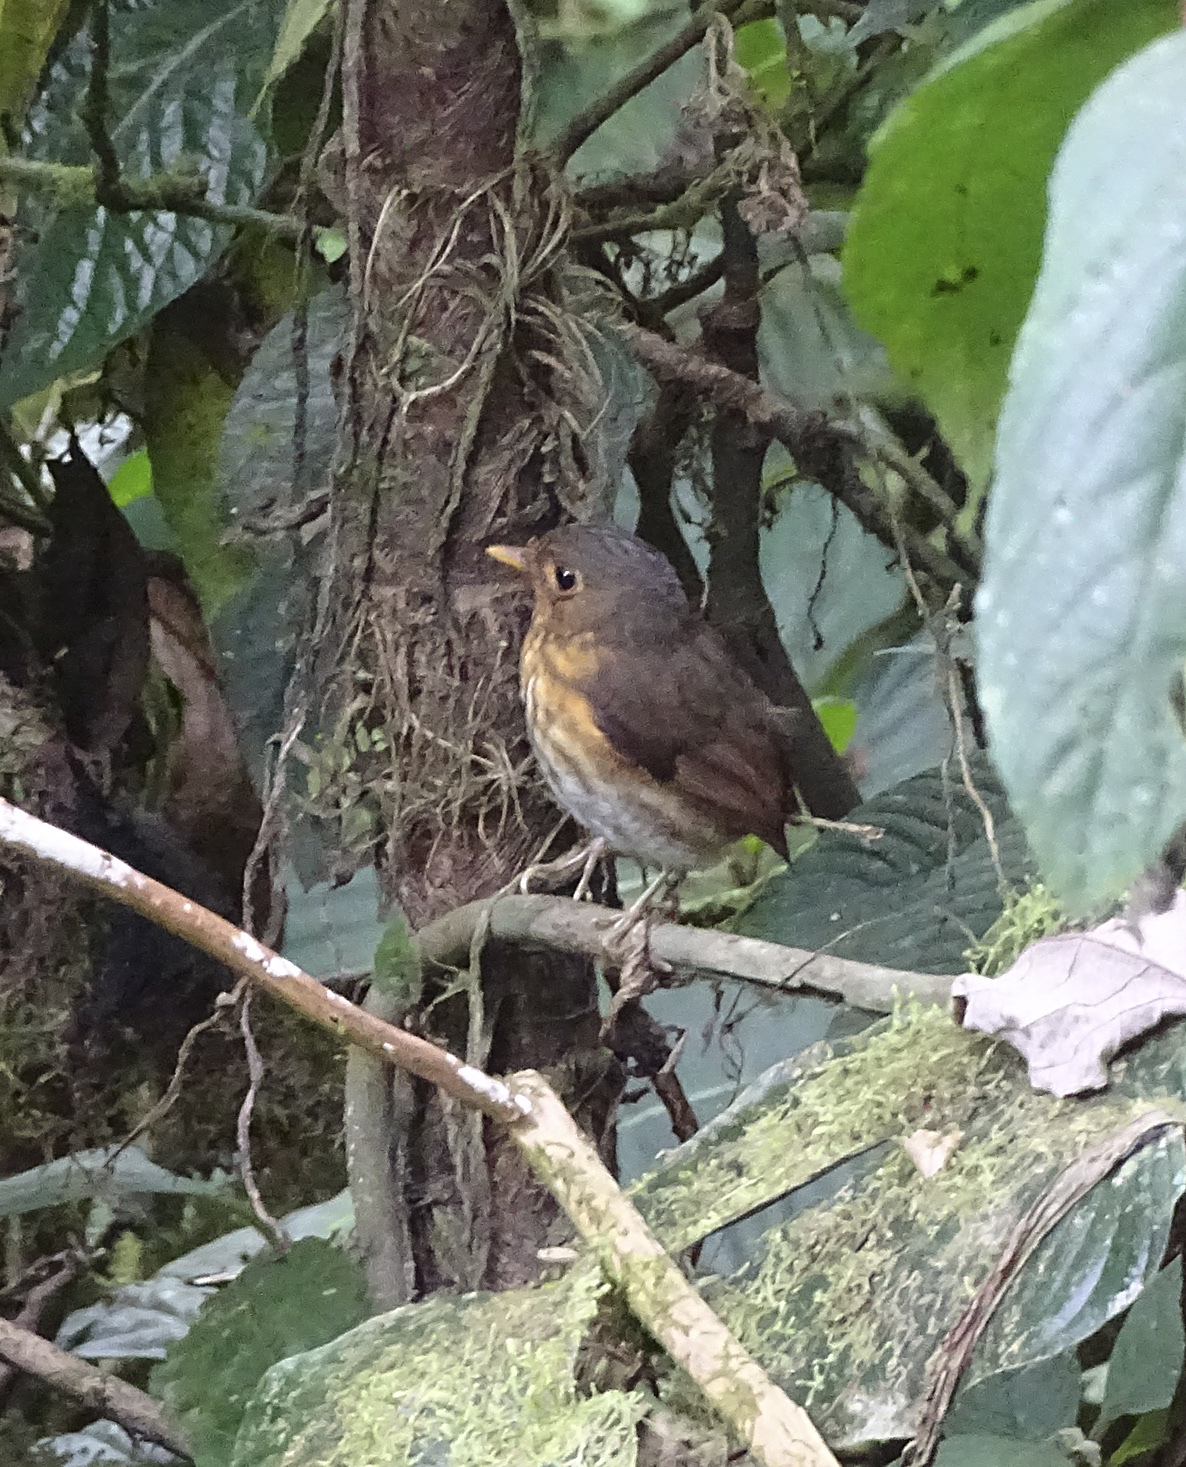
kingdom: Animalia
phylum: Chordata
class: Aves
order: Passeriformes
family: Grallariidae
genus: Grallaricula
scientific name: Grallaricula flavirostris
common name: Ochre-breasted antpitta
